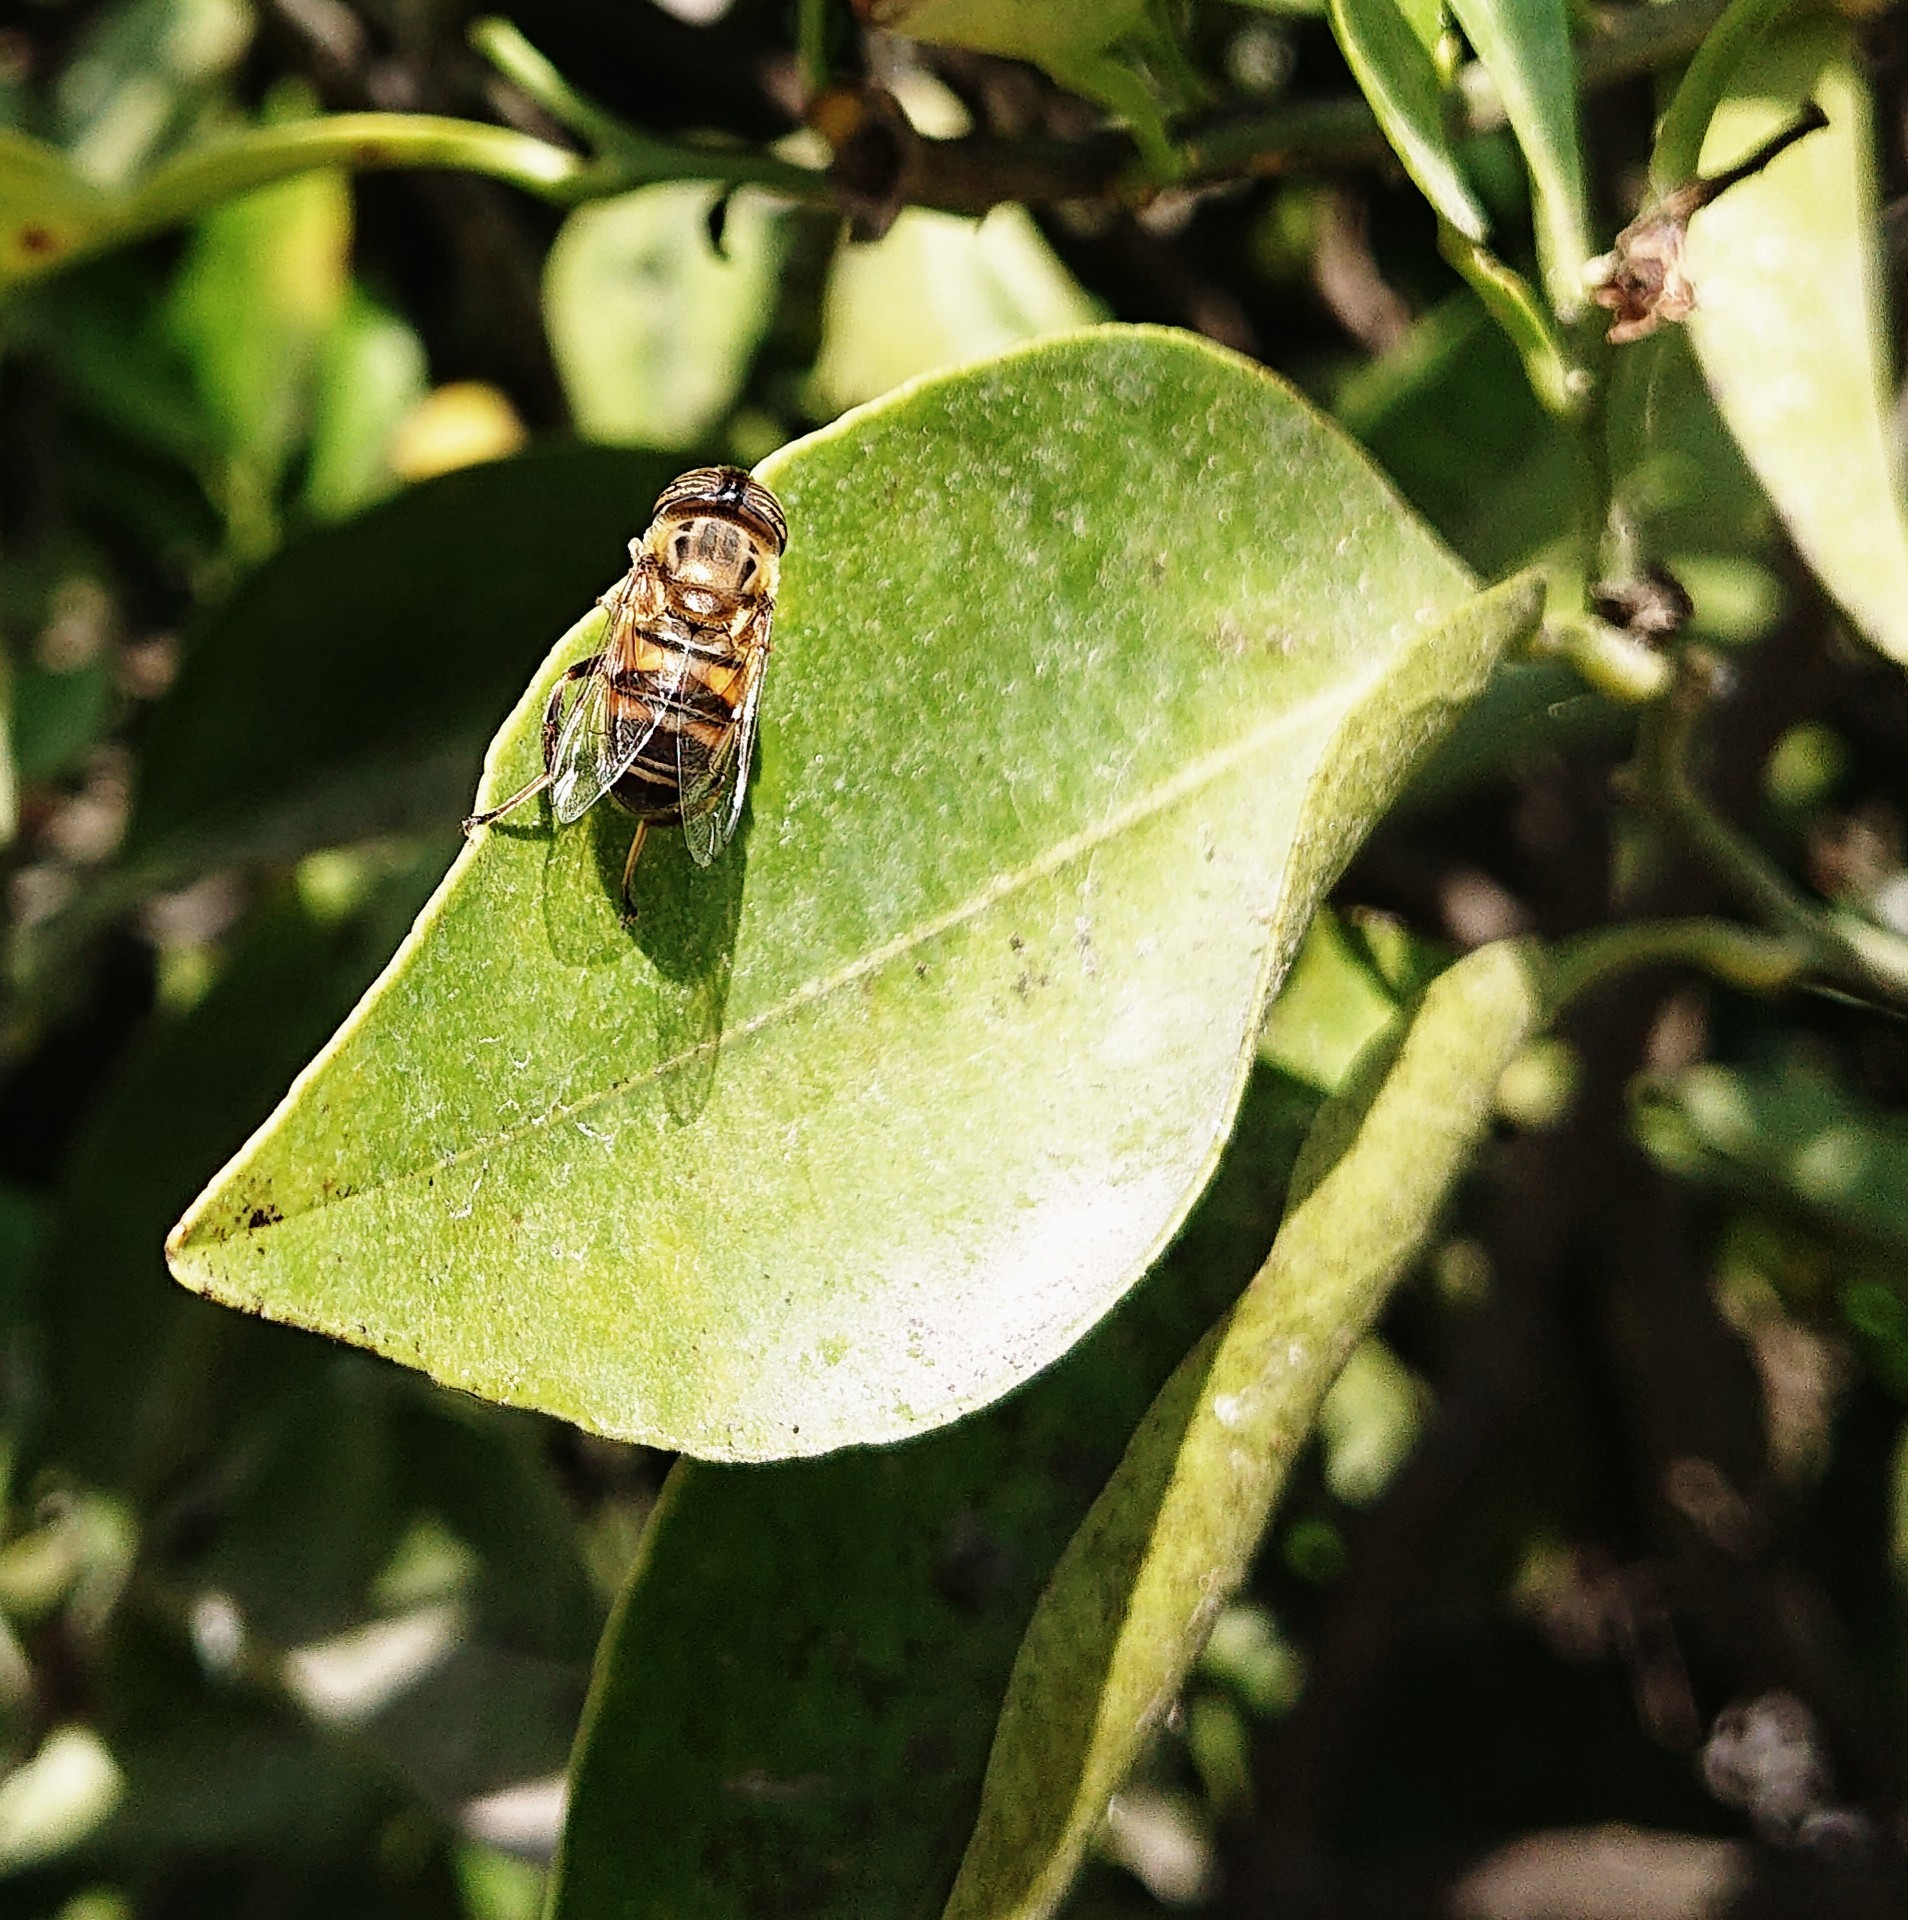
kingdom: Animalia
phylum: Arthropoda
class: Insecta
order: Diptera
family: Syrphidae
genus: Eristalinus
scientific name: Eristalinus taeniops
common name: Syrphid fly
